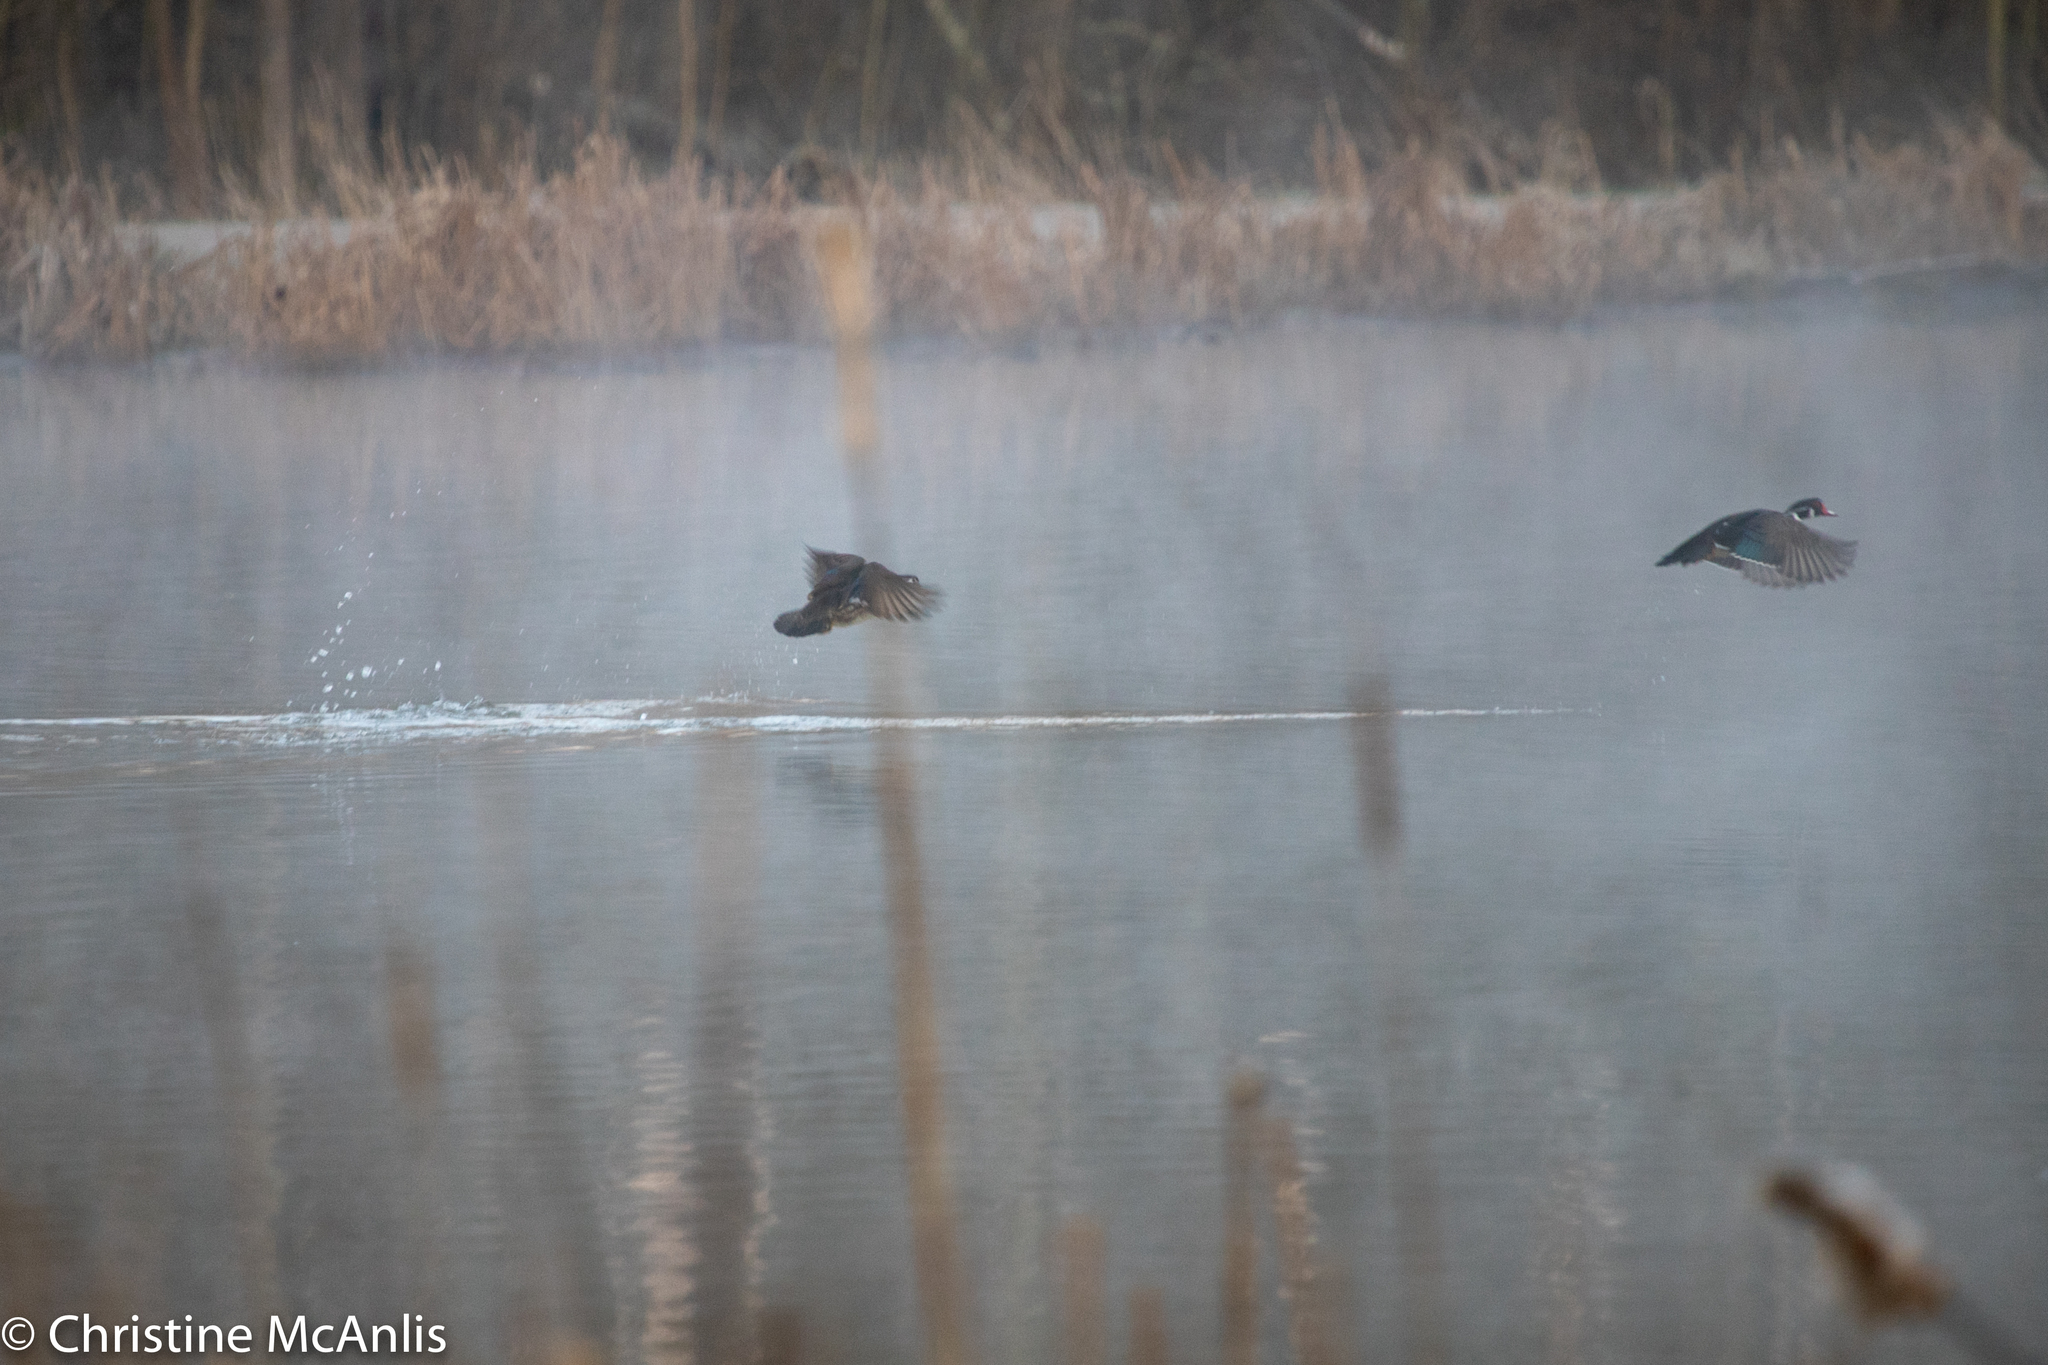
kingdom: Animalia
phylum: Chordata
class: Aves
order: Anseriformes
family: Anatidae
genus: Aix
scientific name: Aix sponsa
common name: Wood duck
